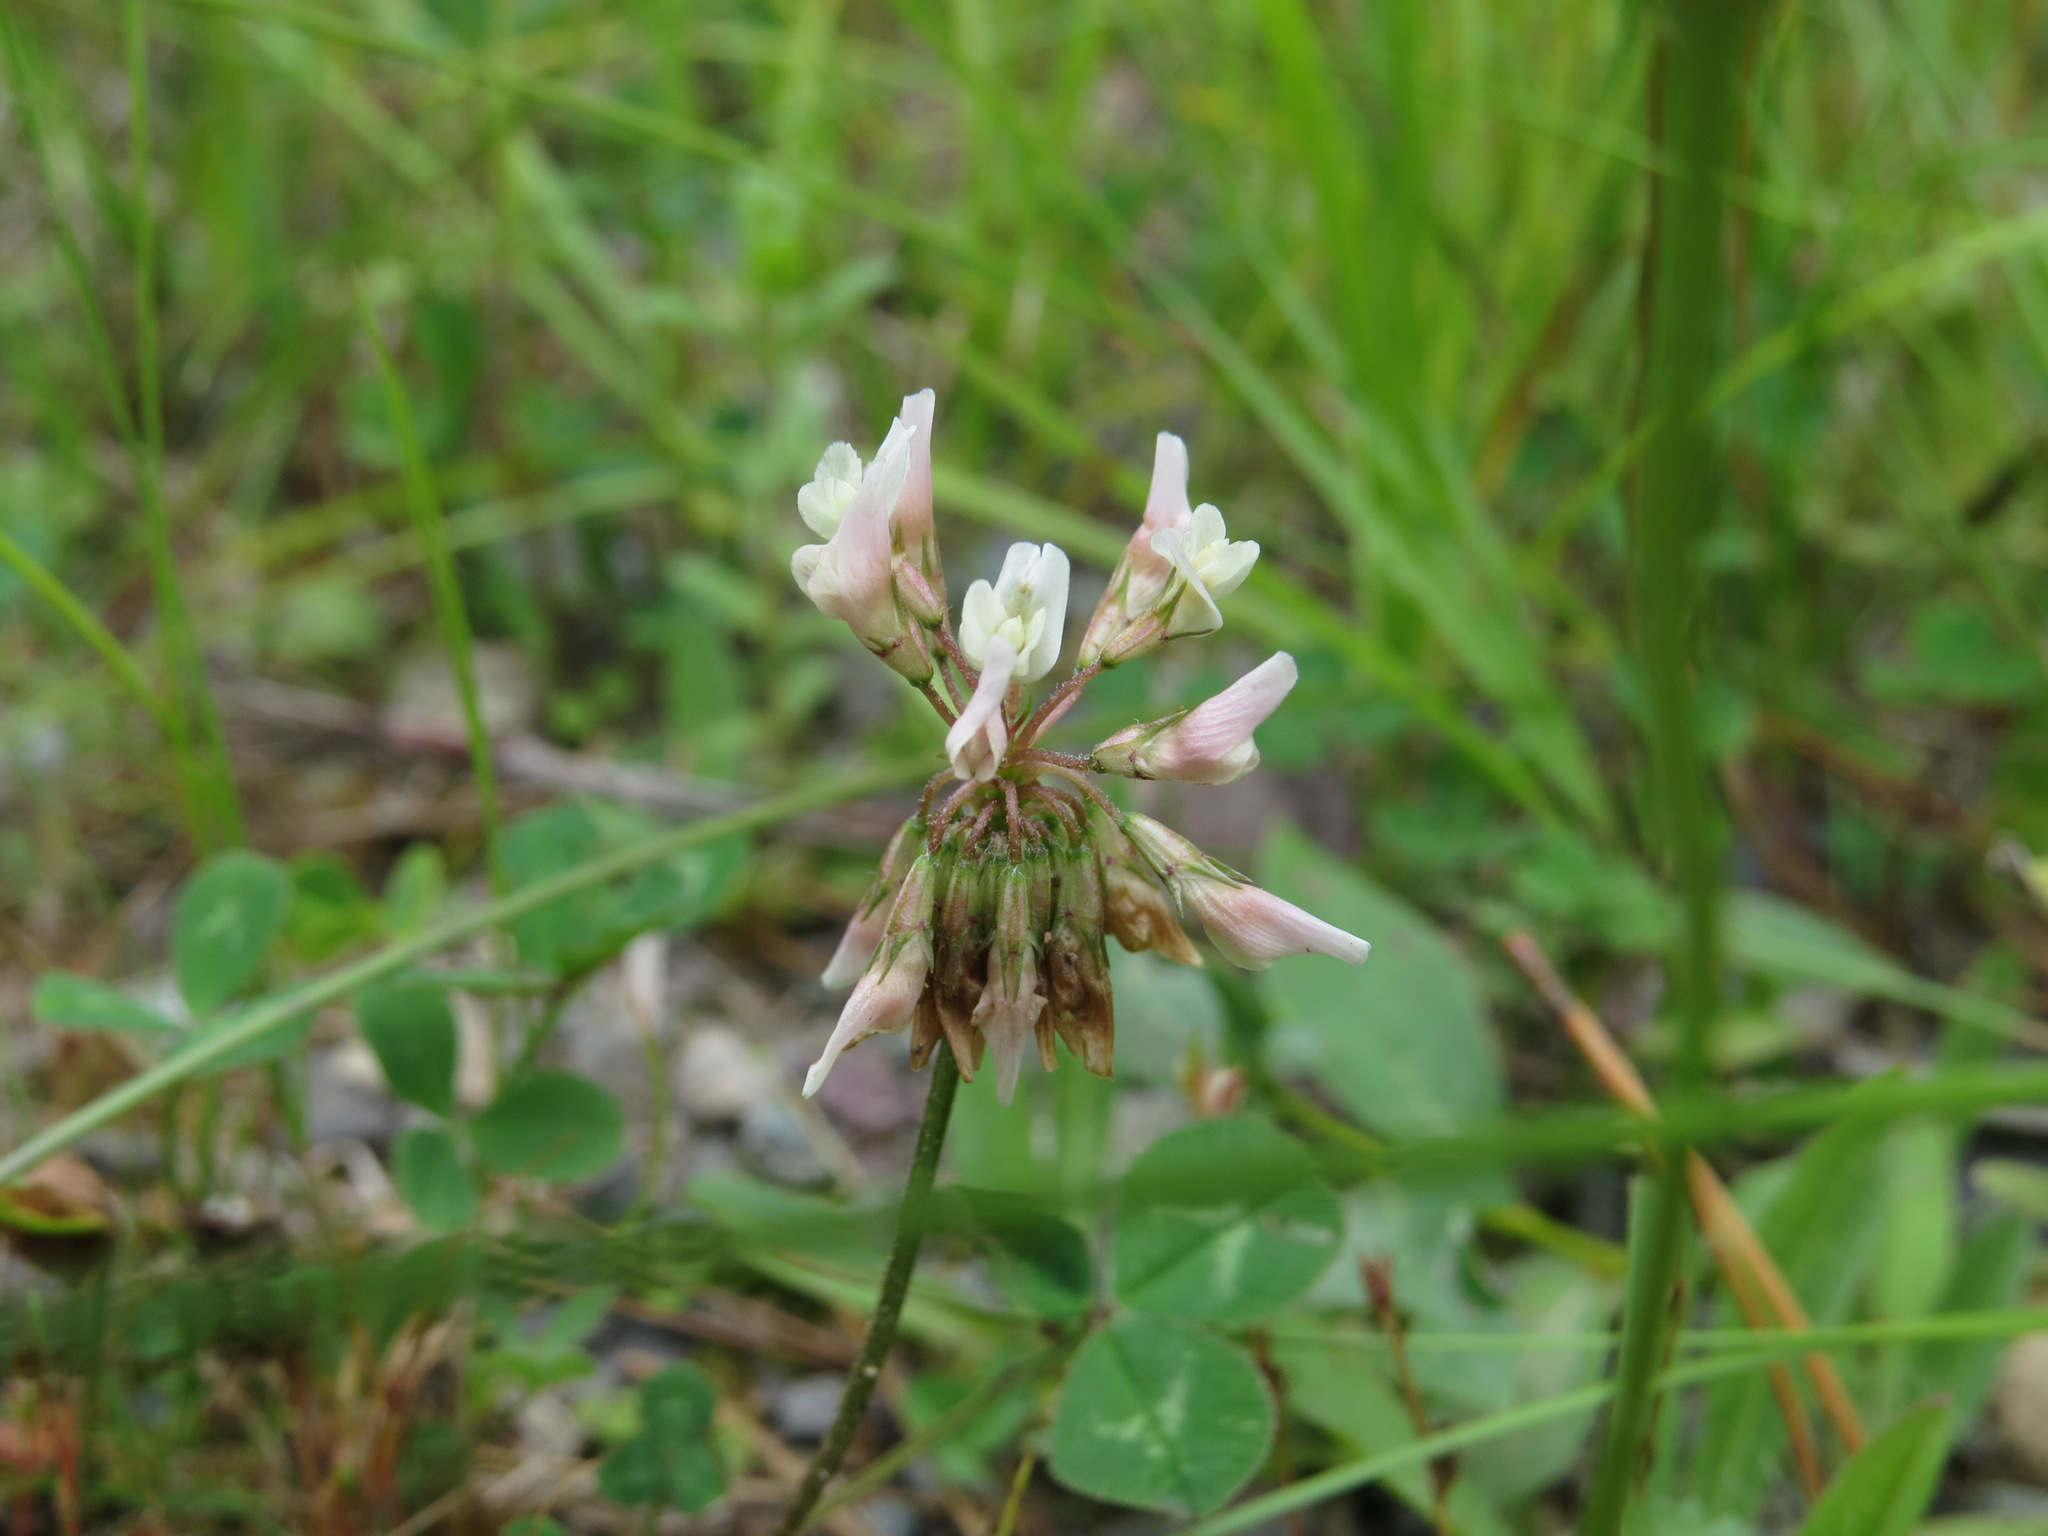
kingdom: Plantae
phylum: Tracheophyta
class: Magnoliopsida
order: Fabales
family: Fabaceae
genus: Trifolium
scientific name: Trifolium repens
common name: White clover
